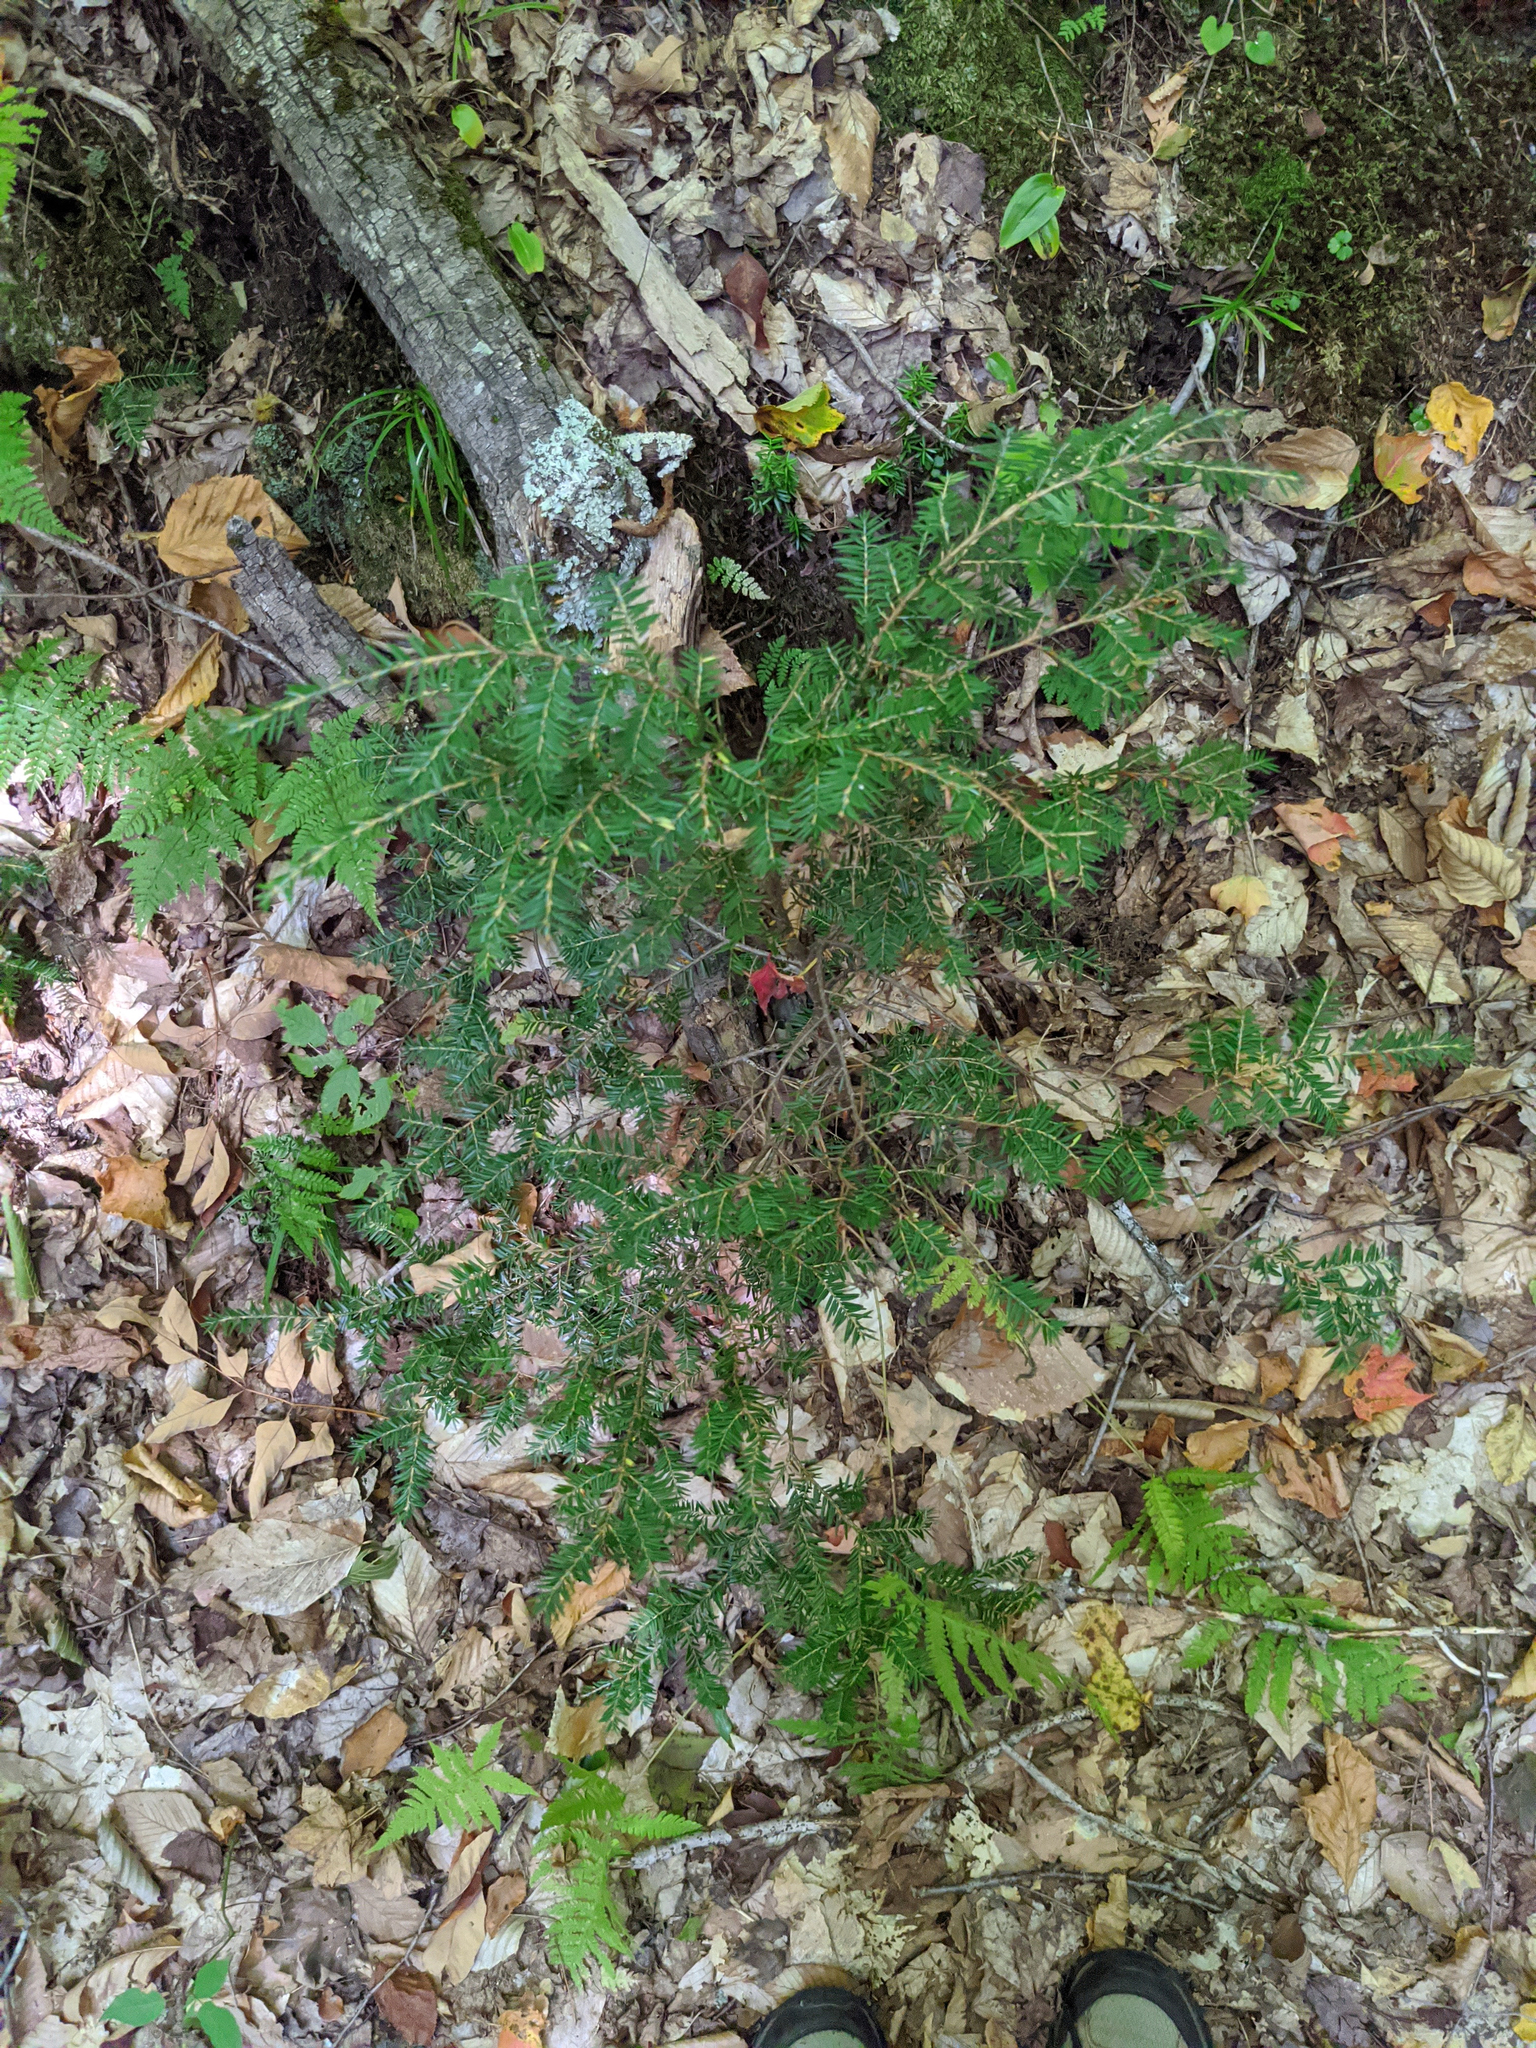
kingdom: Plantae
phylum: Tracheophyta
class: Pinopsida
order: Pinales
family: Pinaceae
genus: Tsuga
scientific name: Tsuga canadensis
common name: Eastern hemlock
